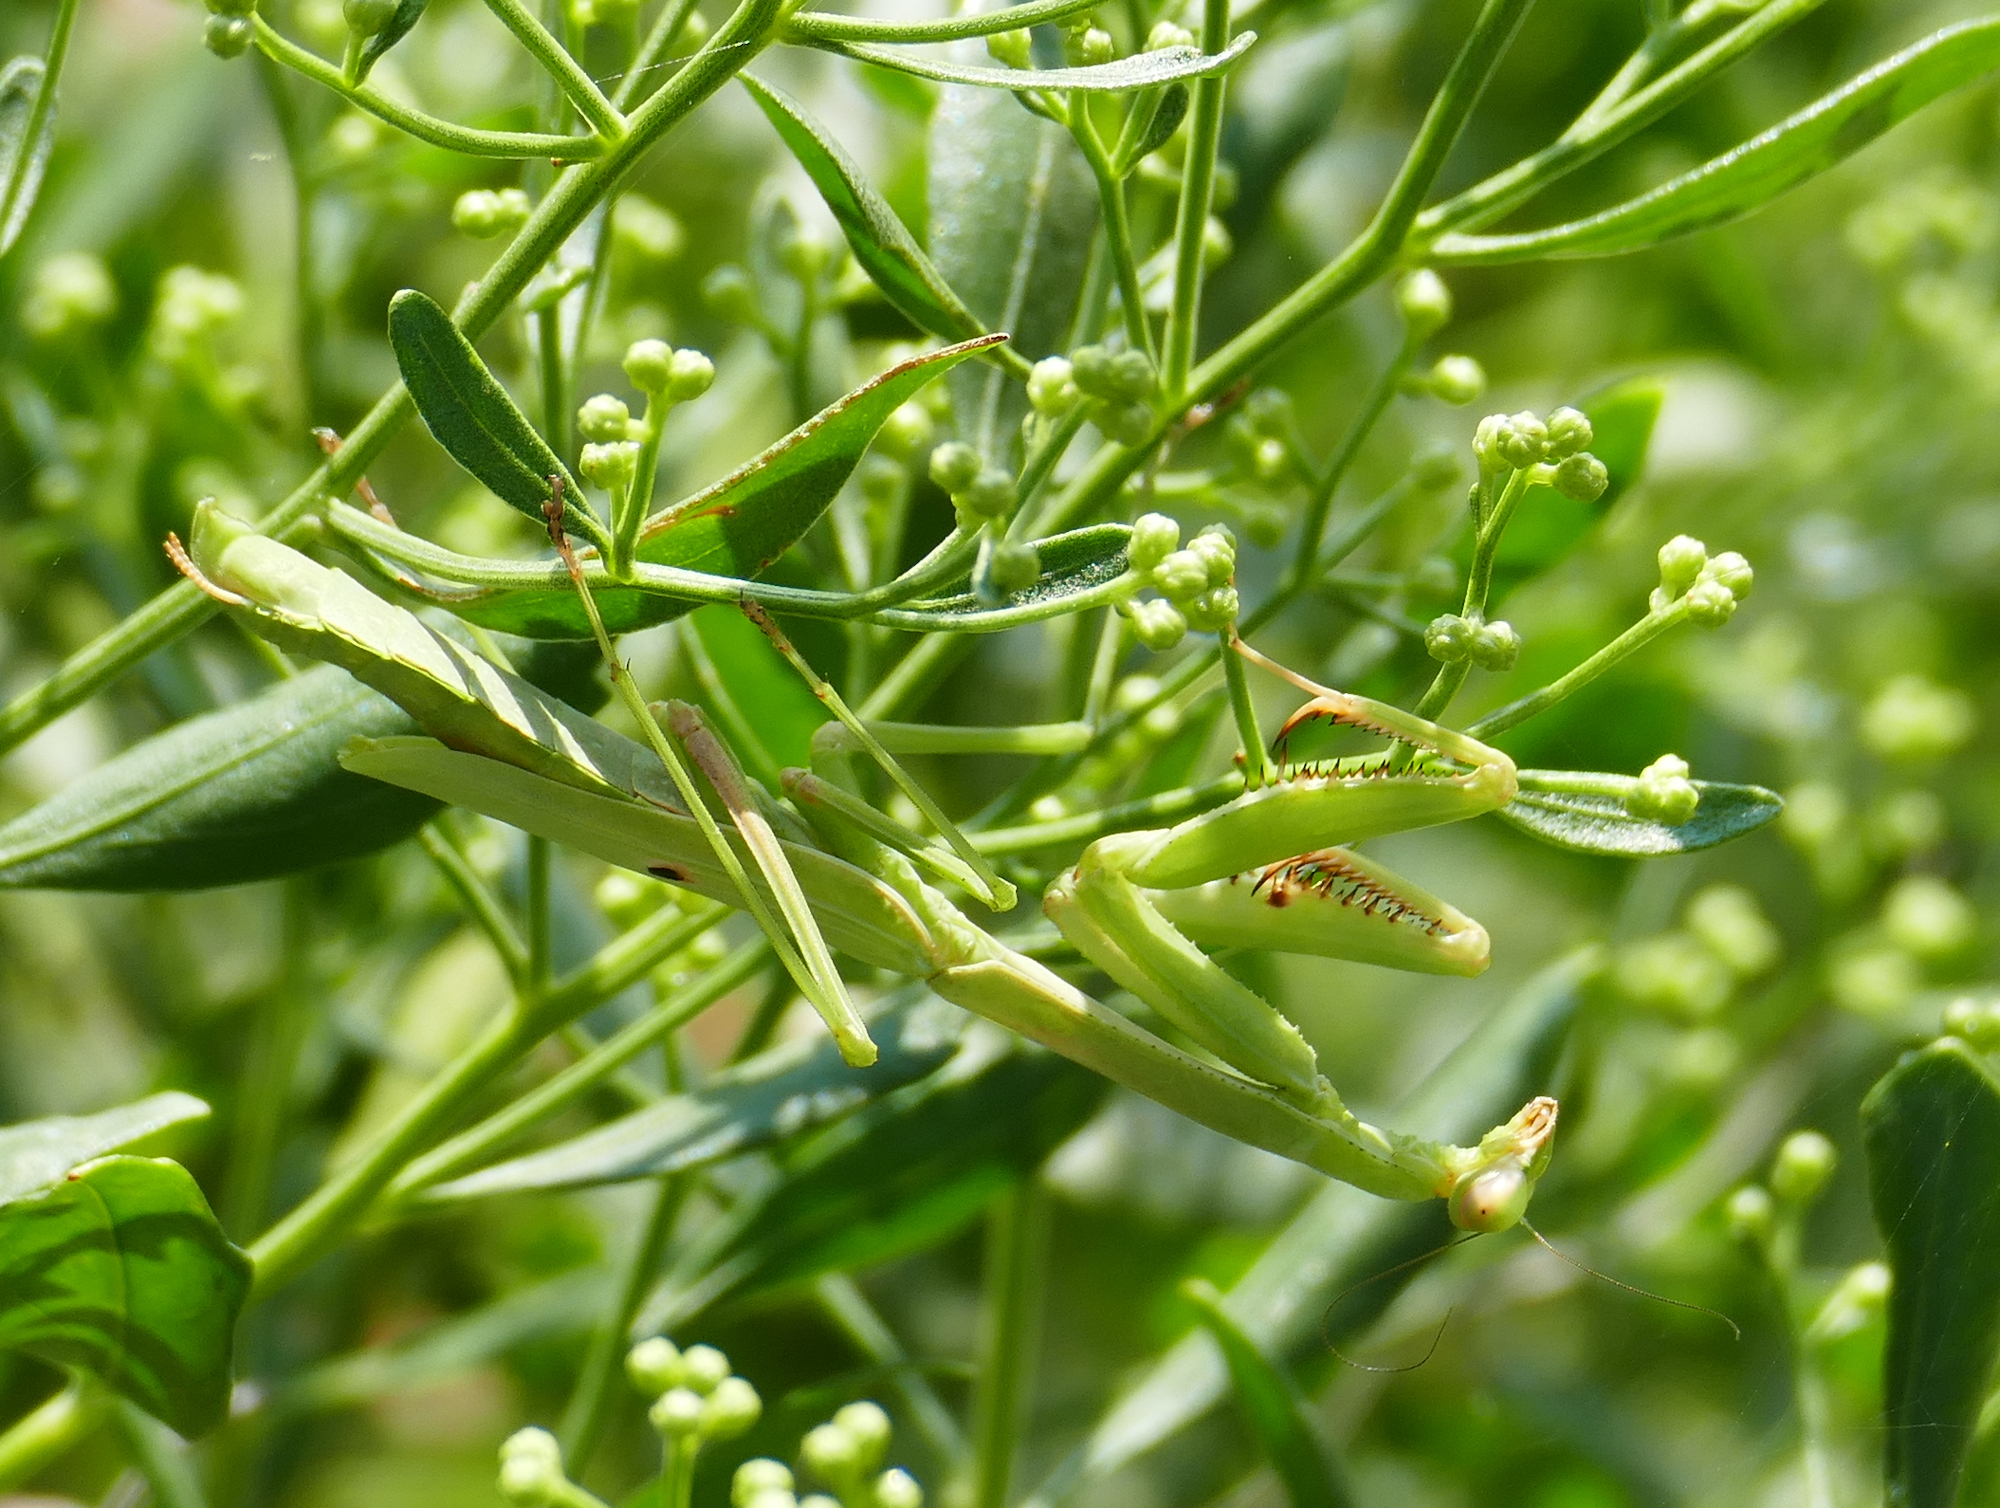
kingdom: Animalia
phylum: Arthropoda
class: Insecta
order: Mantodea
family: Mantidae
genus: Stagmomantis
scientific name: Stagmomantis carolina
